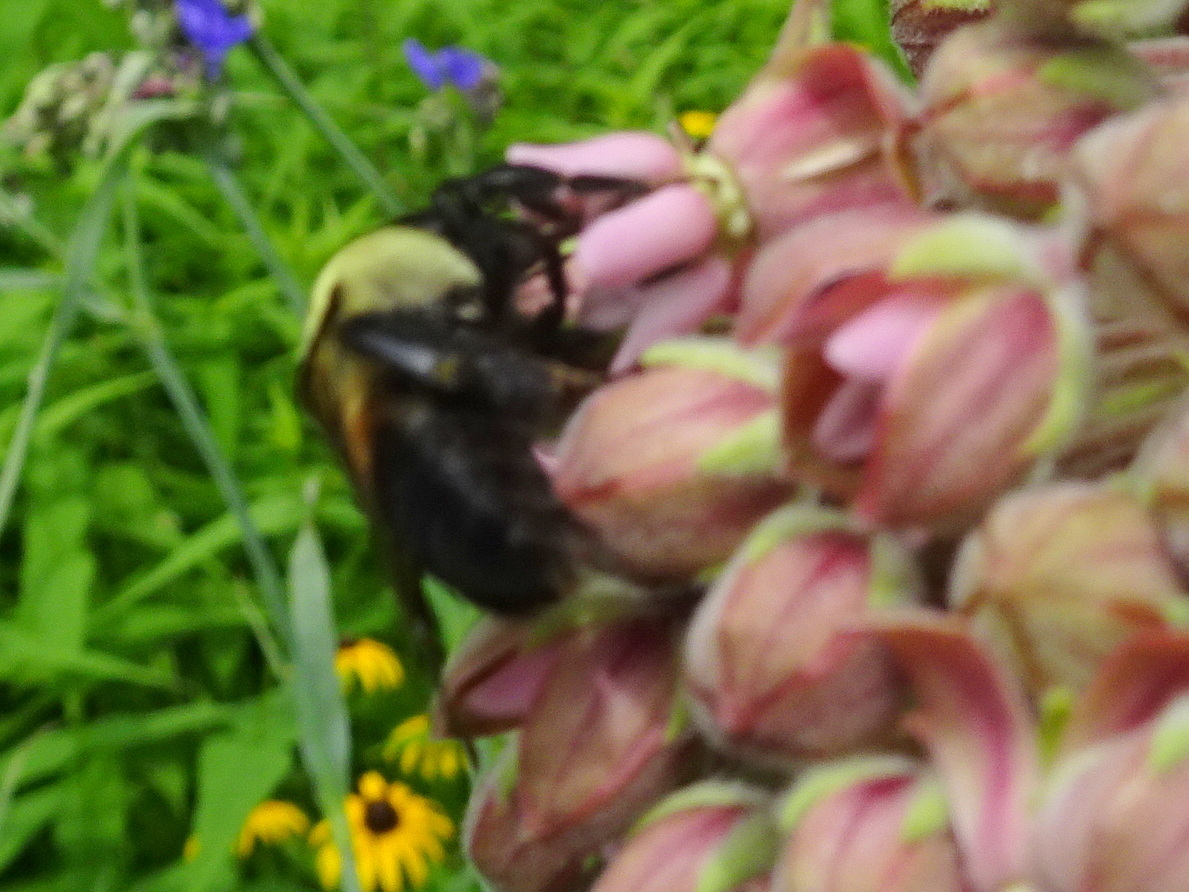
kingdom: Animalia
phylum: Arthropoda
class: Insecta
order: Hymenoptera
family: Apidae
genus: Bombus
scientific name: Bombus griseocollis
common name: Brown-belted bumble bee
